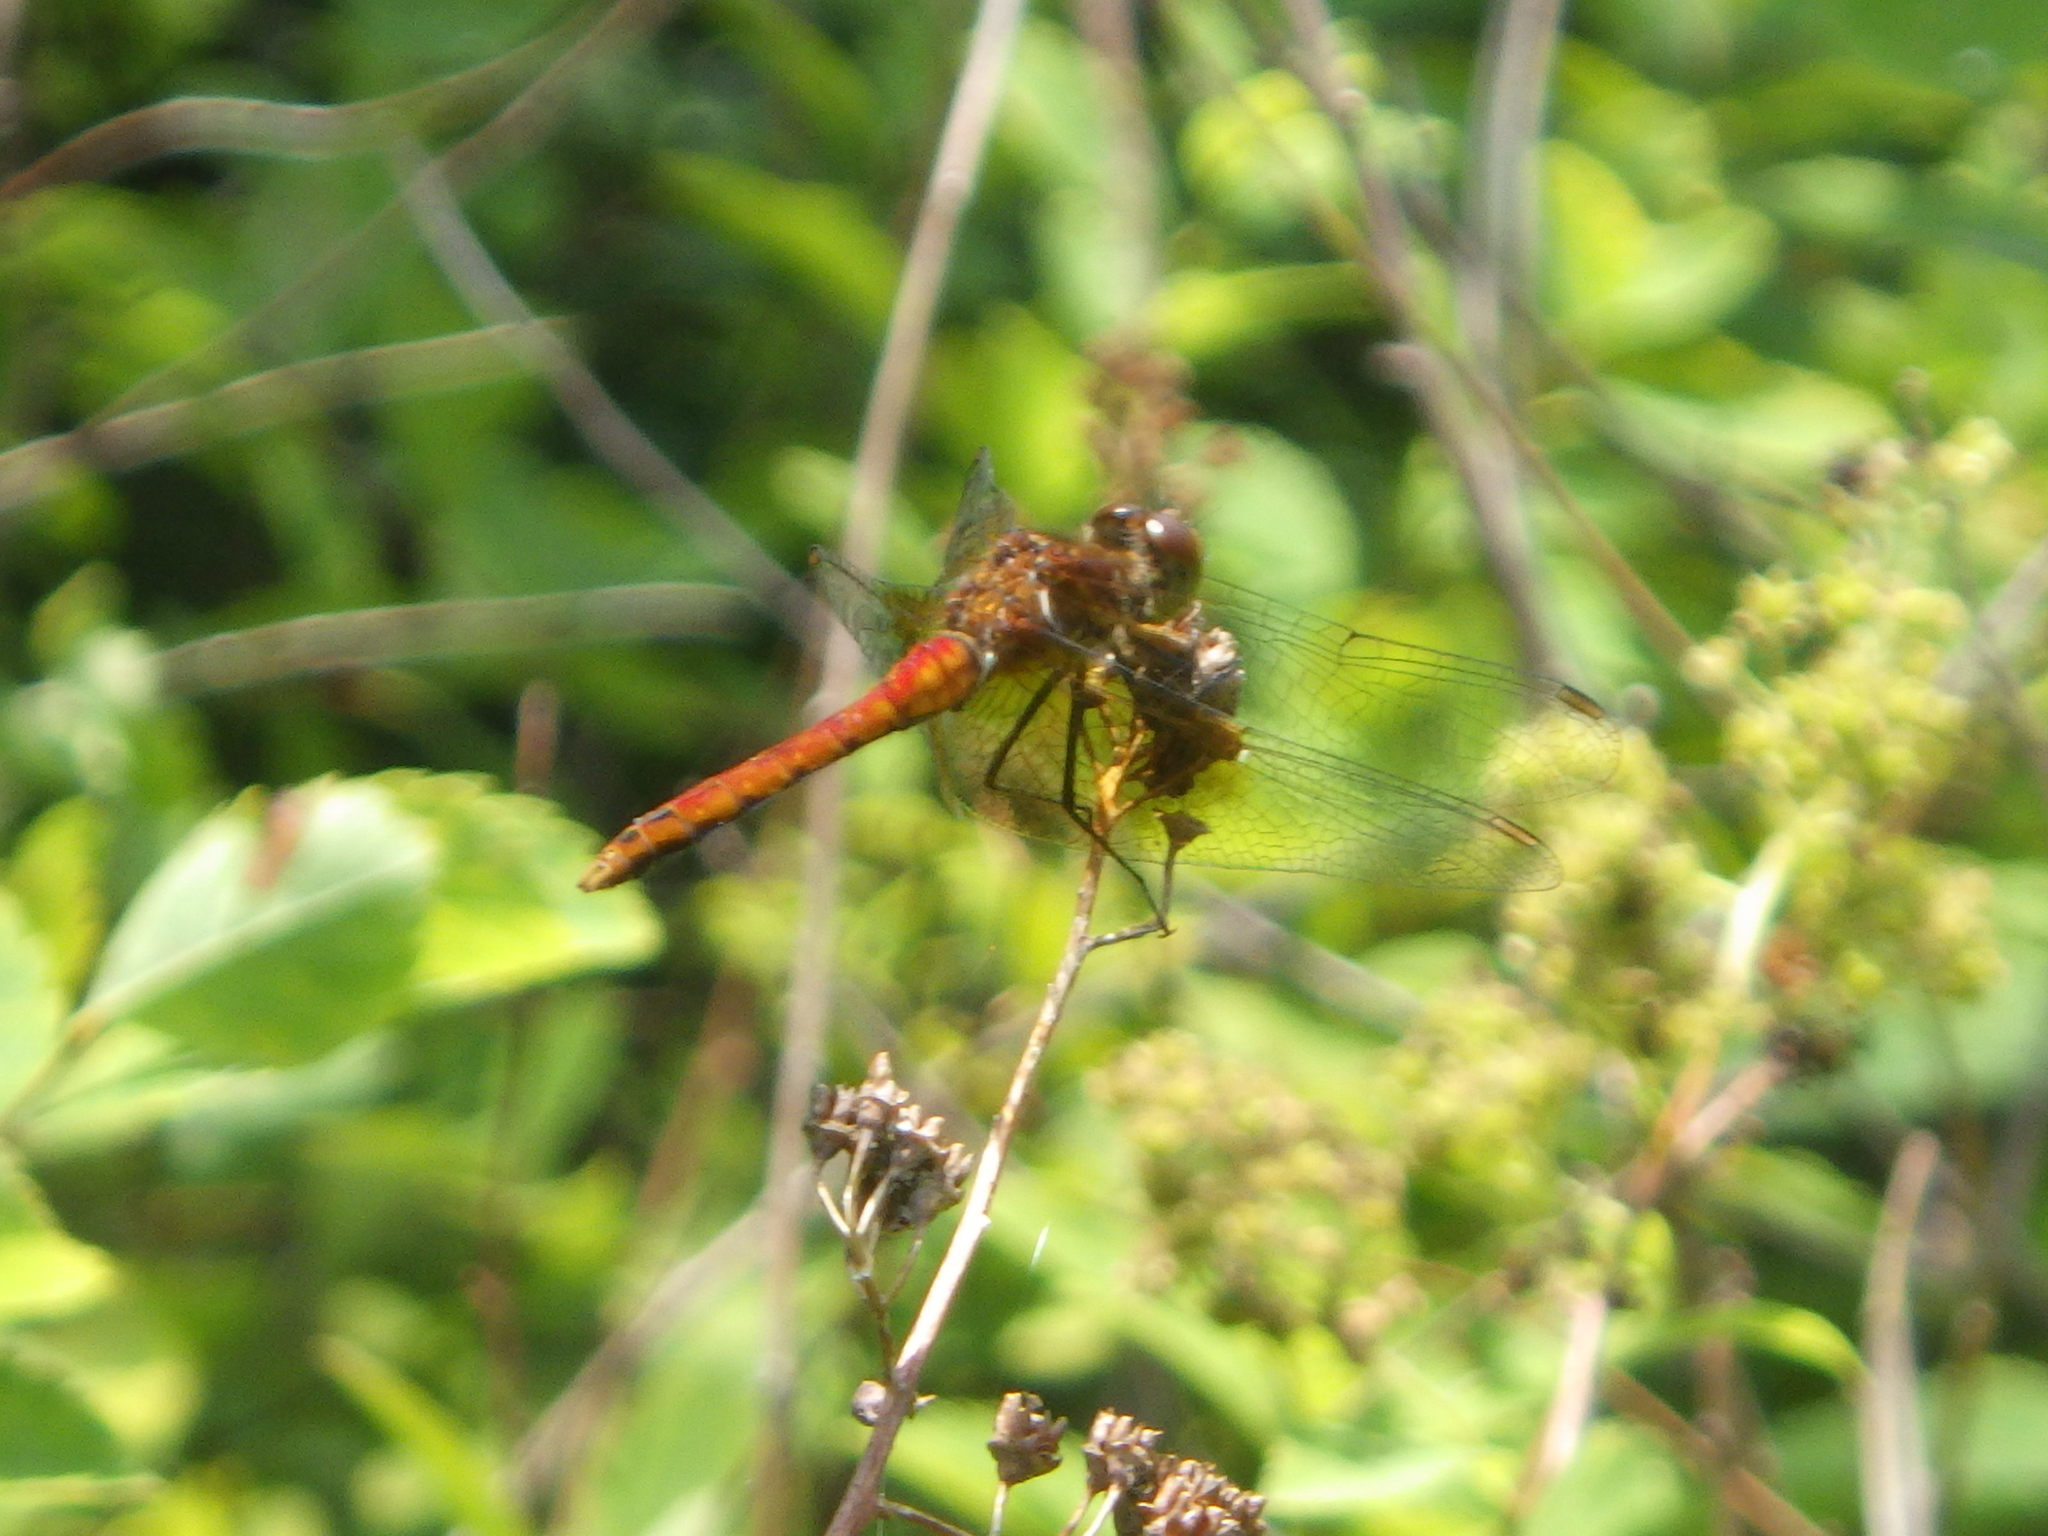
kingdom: Animalia
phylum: Arthropoda
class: Insecta
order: Odonata
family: Libellulidae
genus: Sympetrum
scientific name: Sympetrum semicinctum
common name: Band-winged meadowhawk
